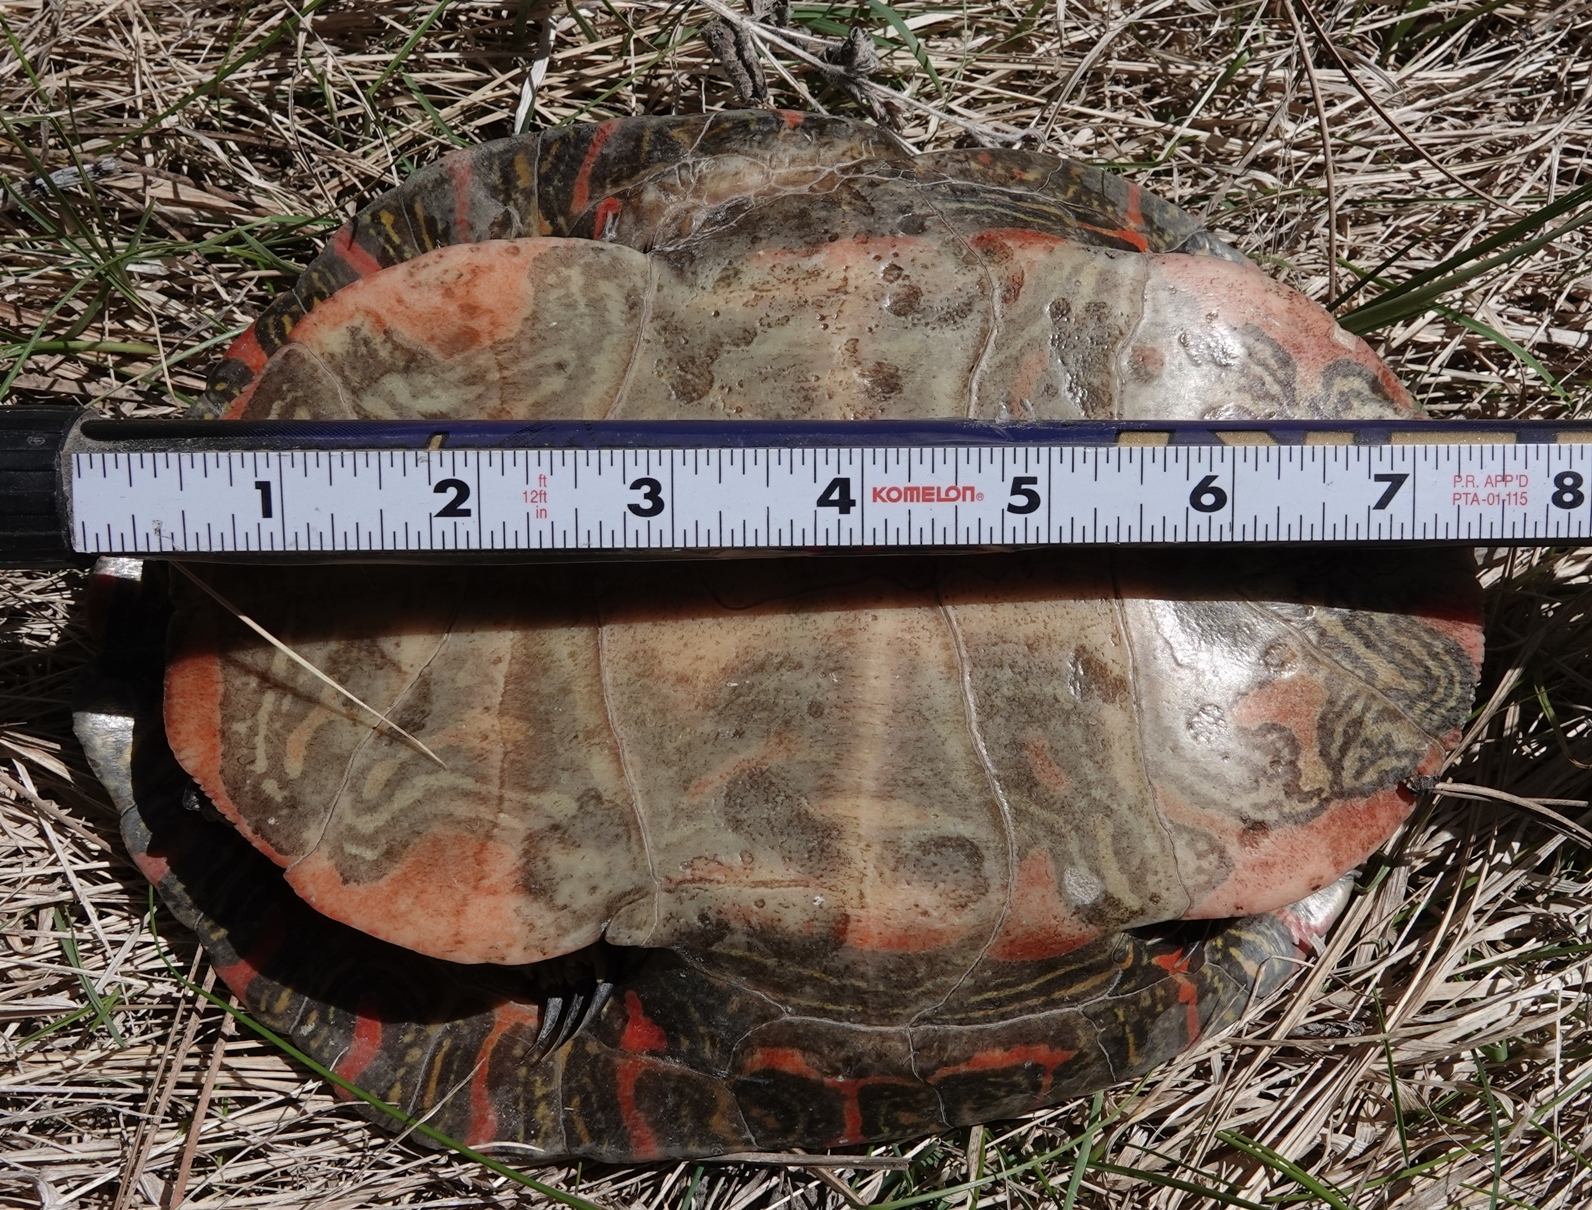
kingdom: Animalia
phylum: Chordata
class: Testudines
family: Emydidae
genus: Chrysemys
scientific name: Chrysemys picta
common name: Painted turtle
